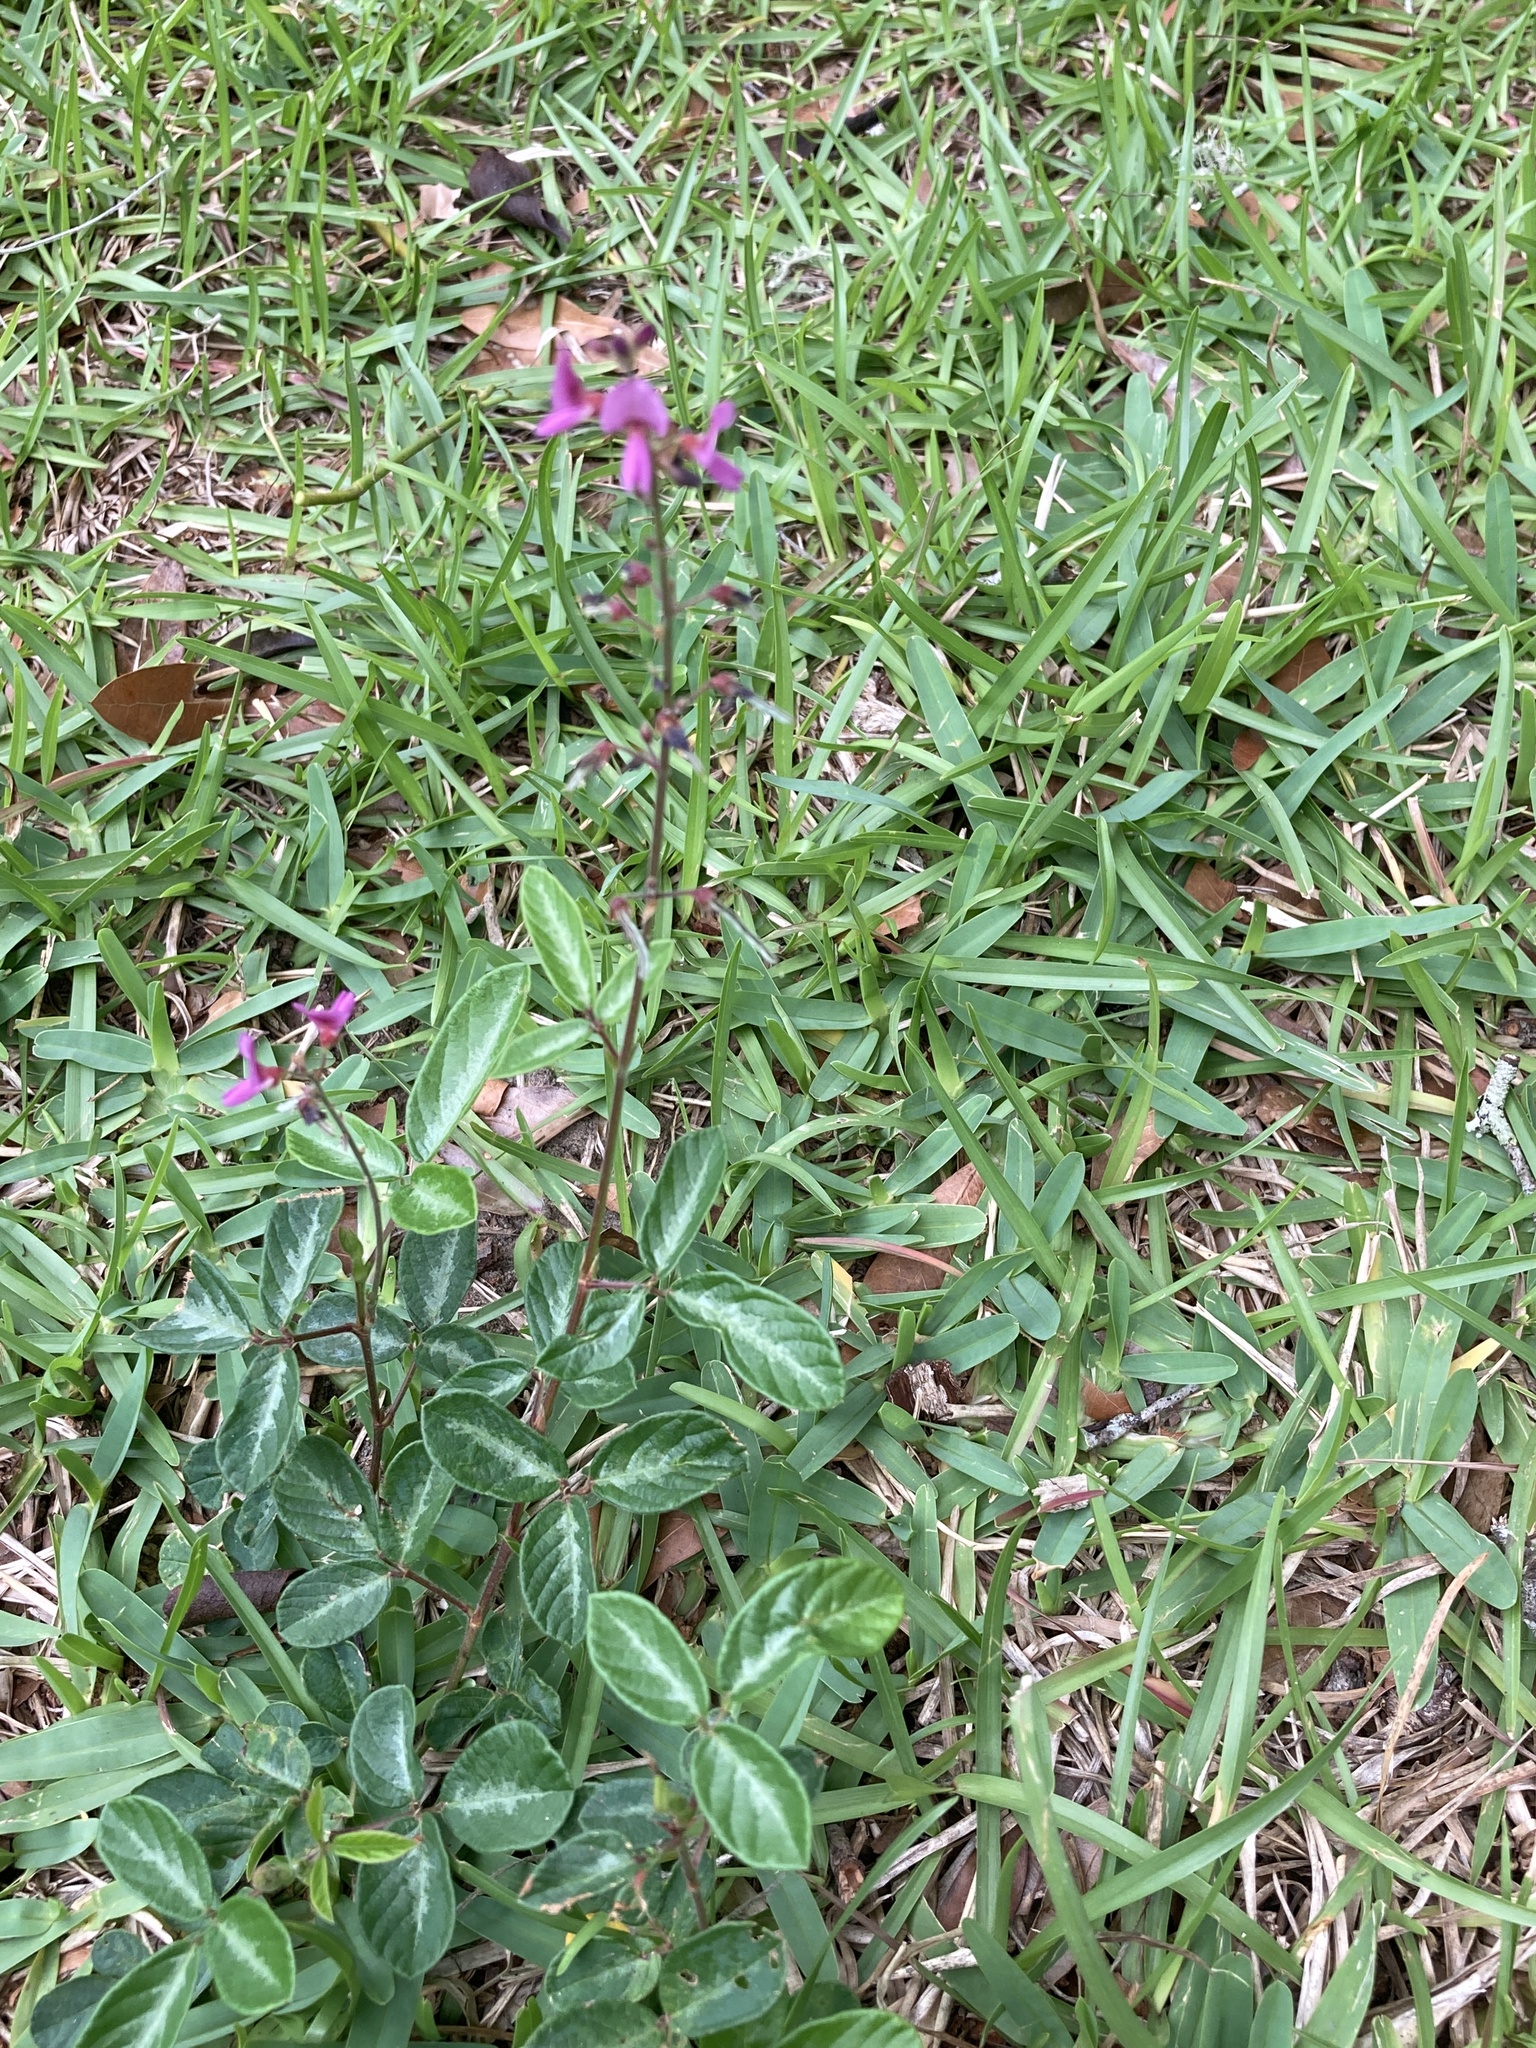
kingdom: Plantae
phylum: Tracheophyta
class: Magnoliopsida
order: Fabales
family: Fabaceae
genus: Desmodium
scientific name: Desmodium incanum
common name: Tickclover
